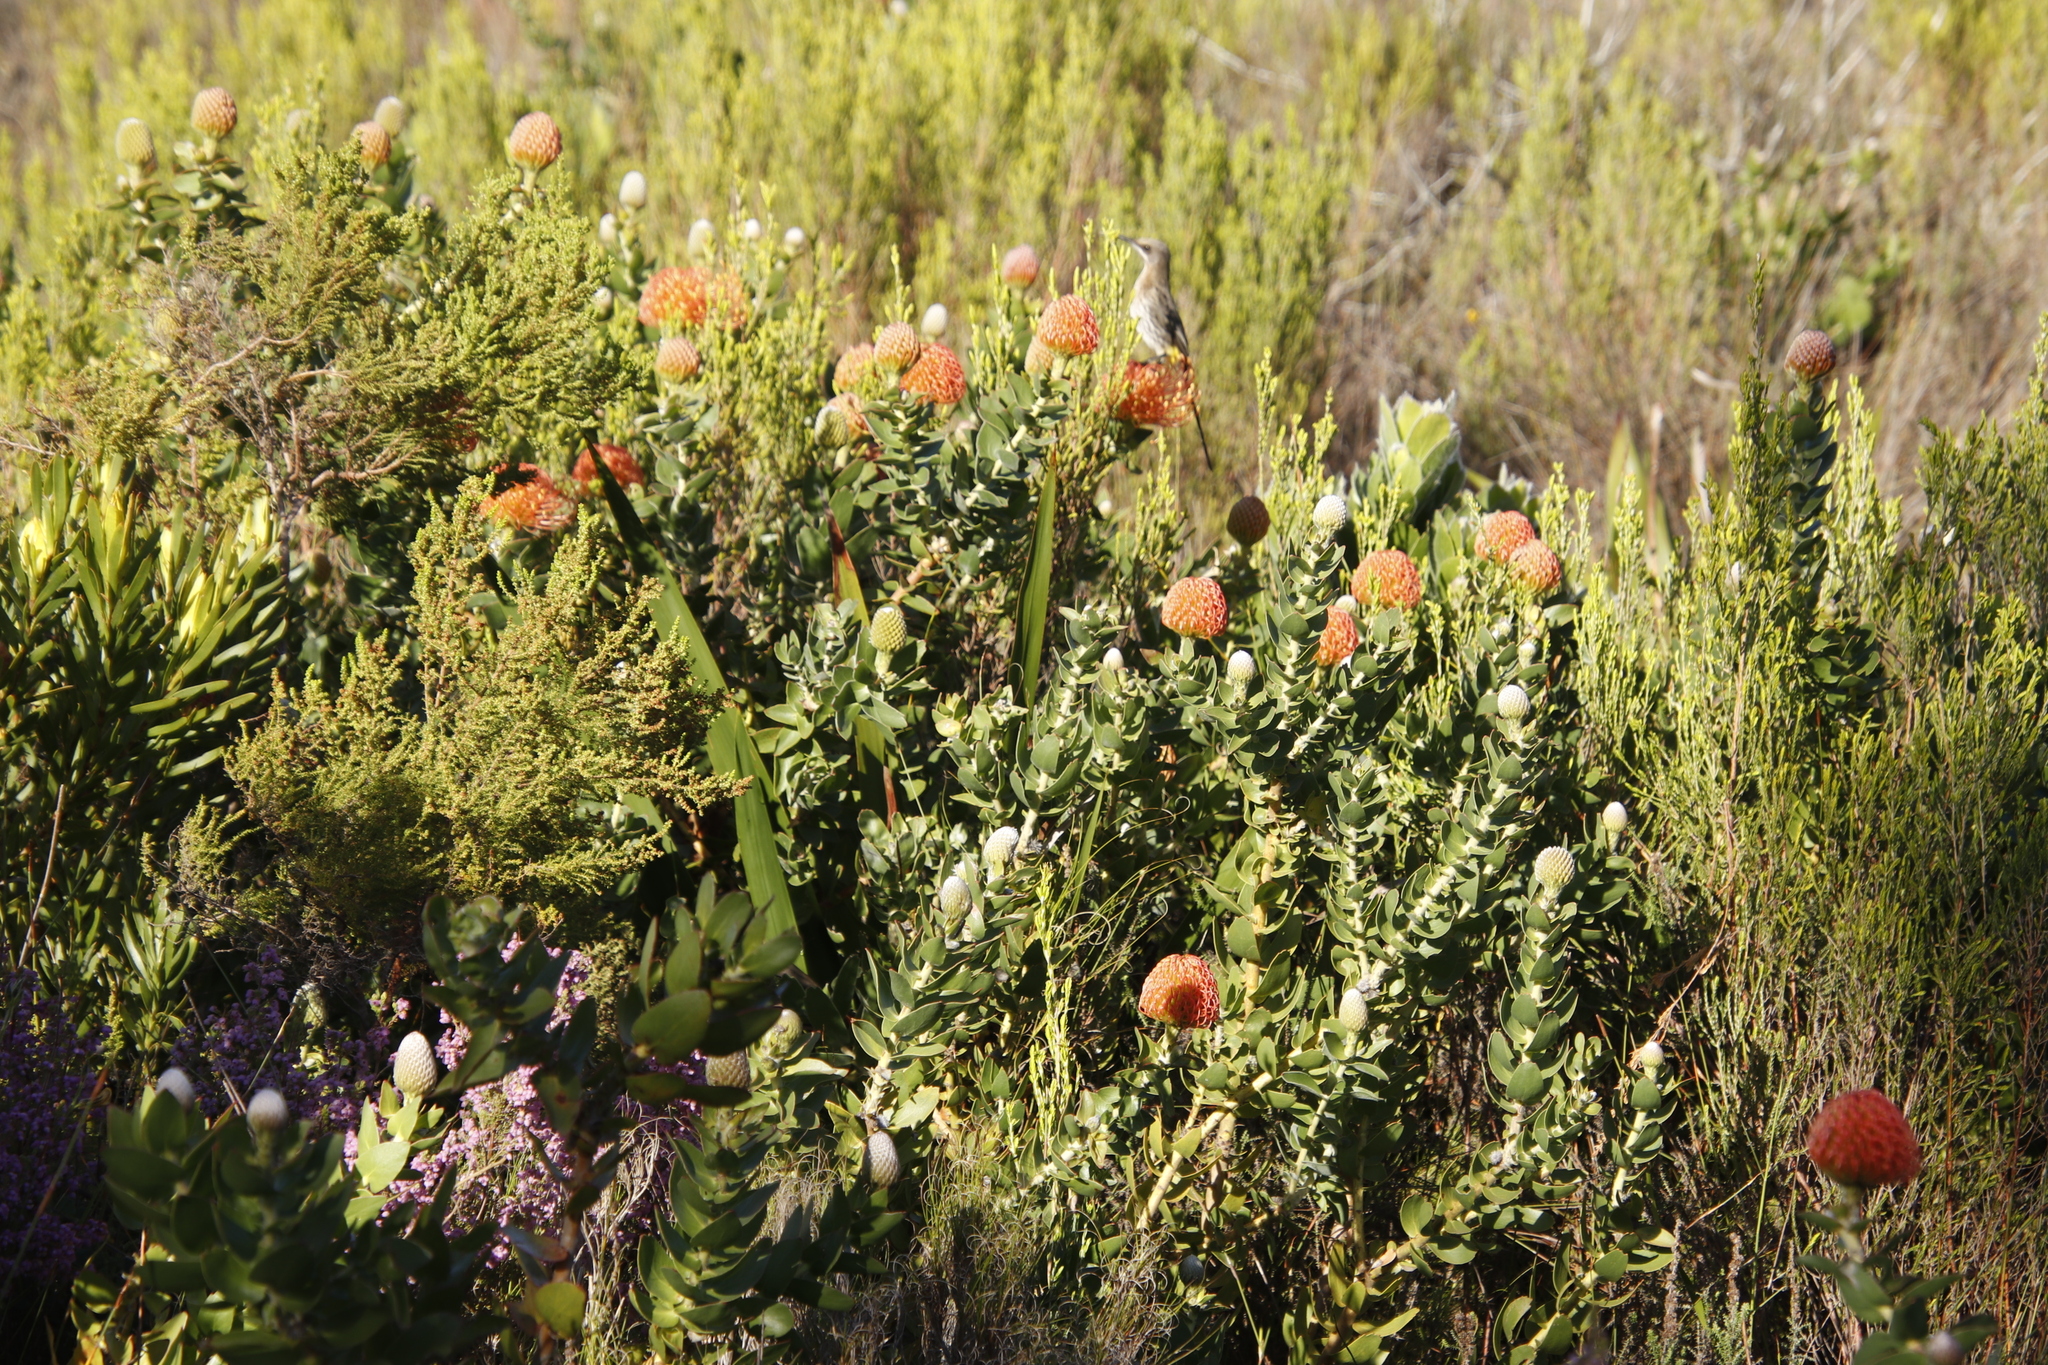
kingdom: Plantae
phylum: Tracheophyta
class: Magnoliopsida
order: Proteales
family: Proteaceae
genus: Leucospermum
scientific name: Leucospermum cordifolium
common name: Red pincushion-protea
